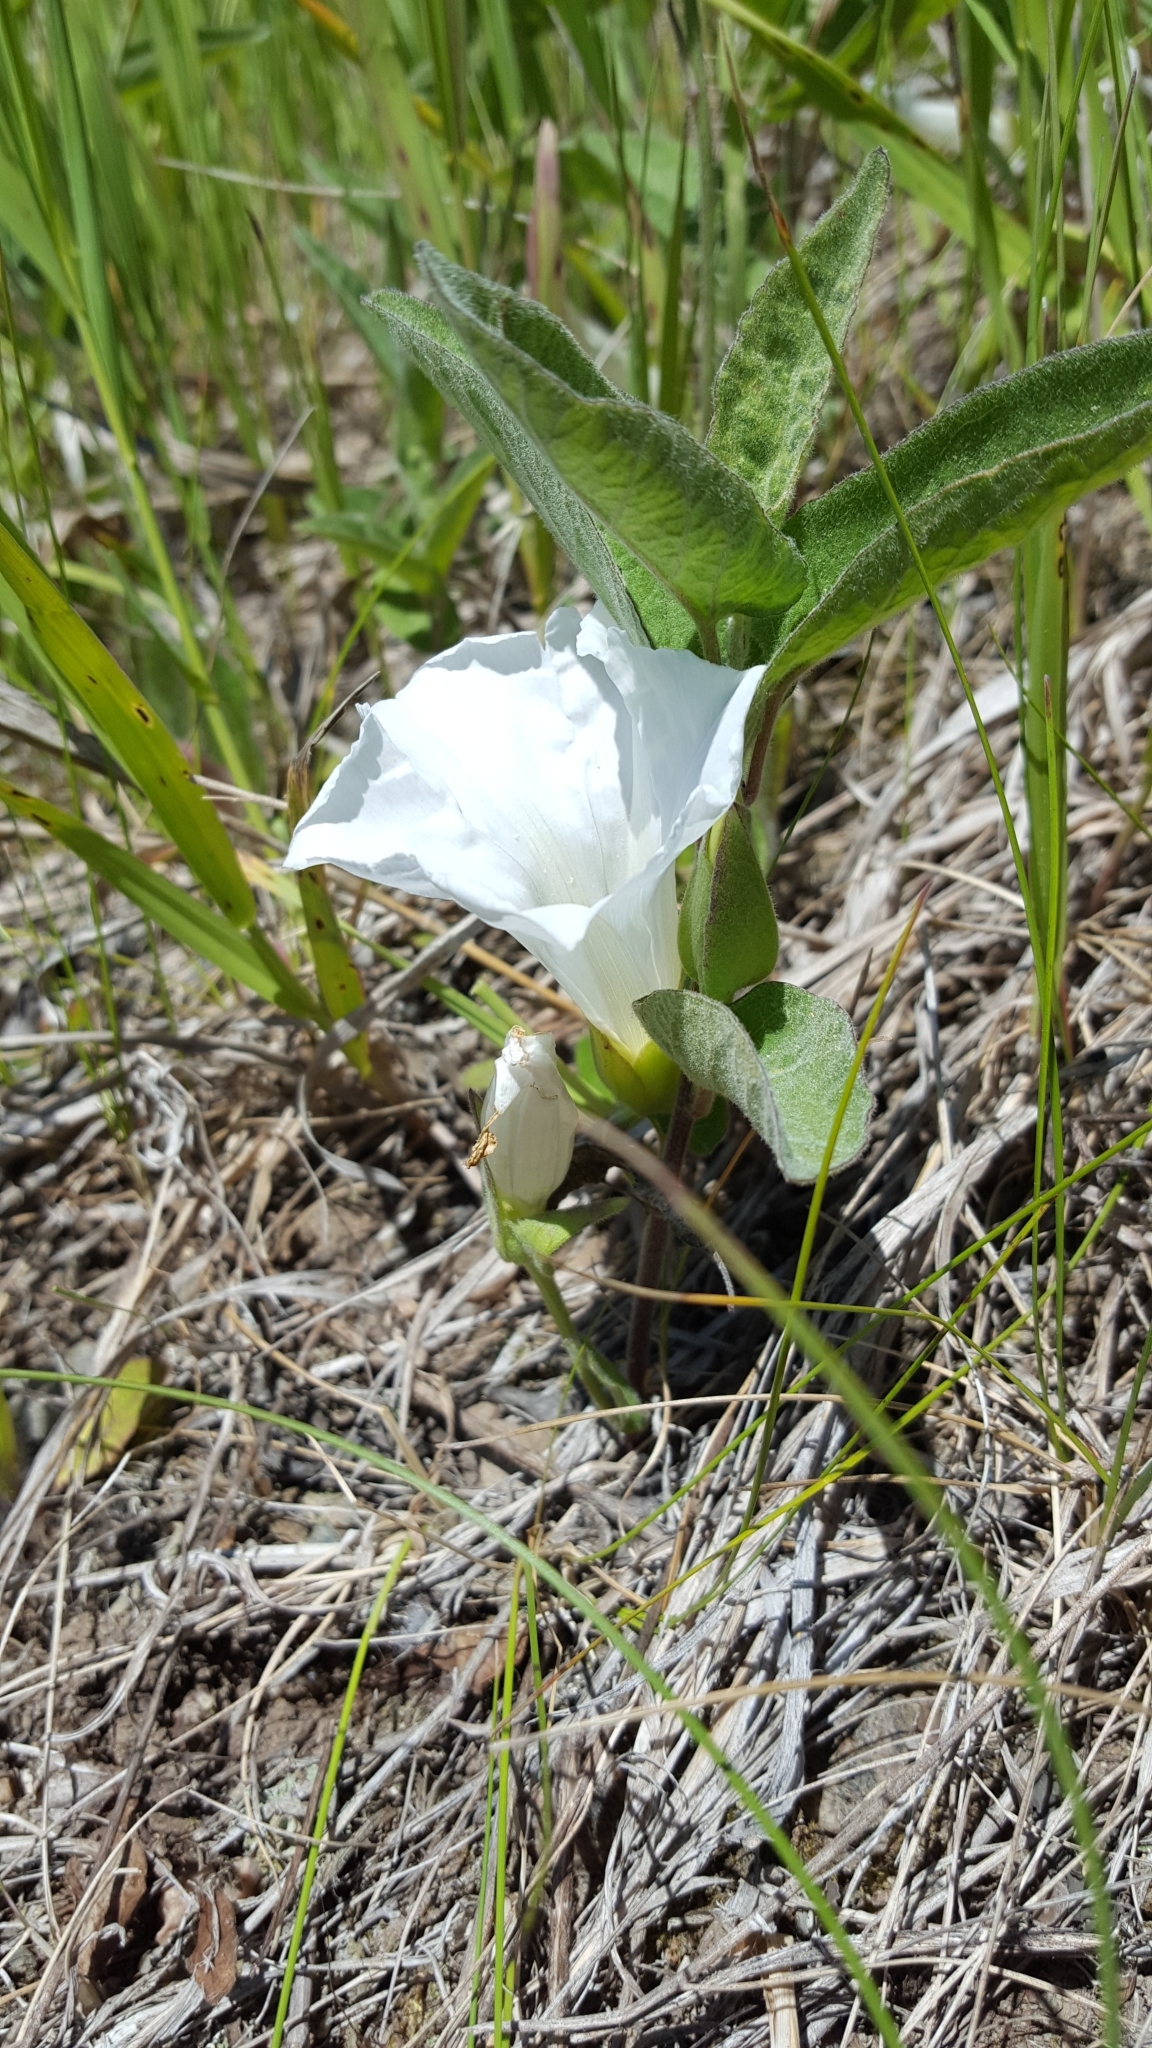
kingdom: Plantae
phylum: Tracheophyta
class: Magnoliopsida
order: Solanales
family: Convolvulaceae
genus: Calystegia
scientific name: Calystegia spithamaea
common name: Dwarf bindweed
